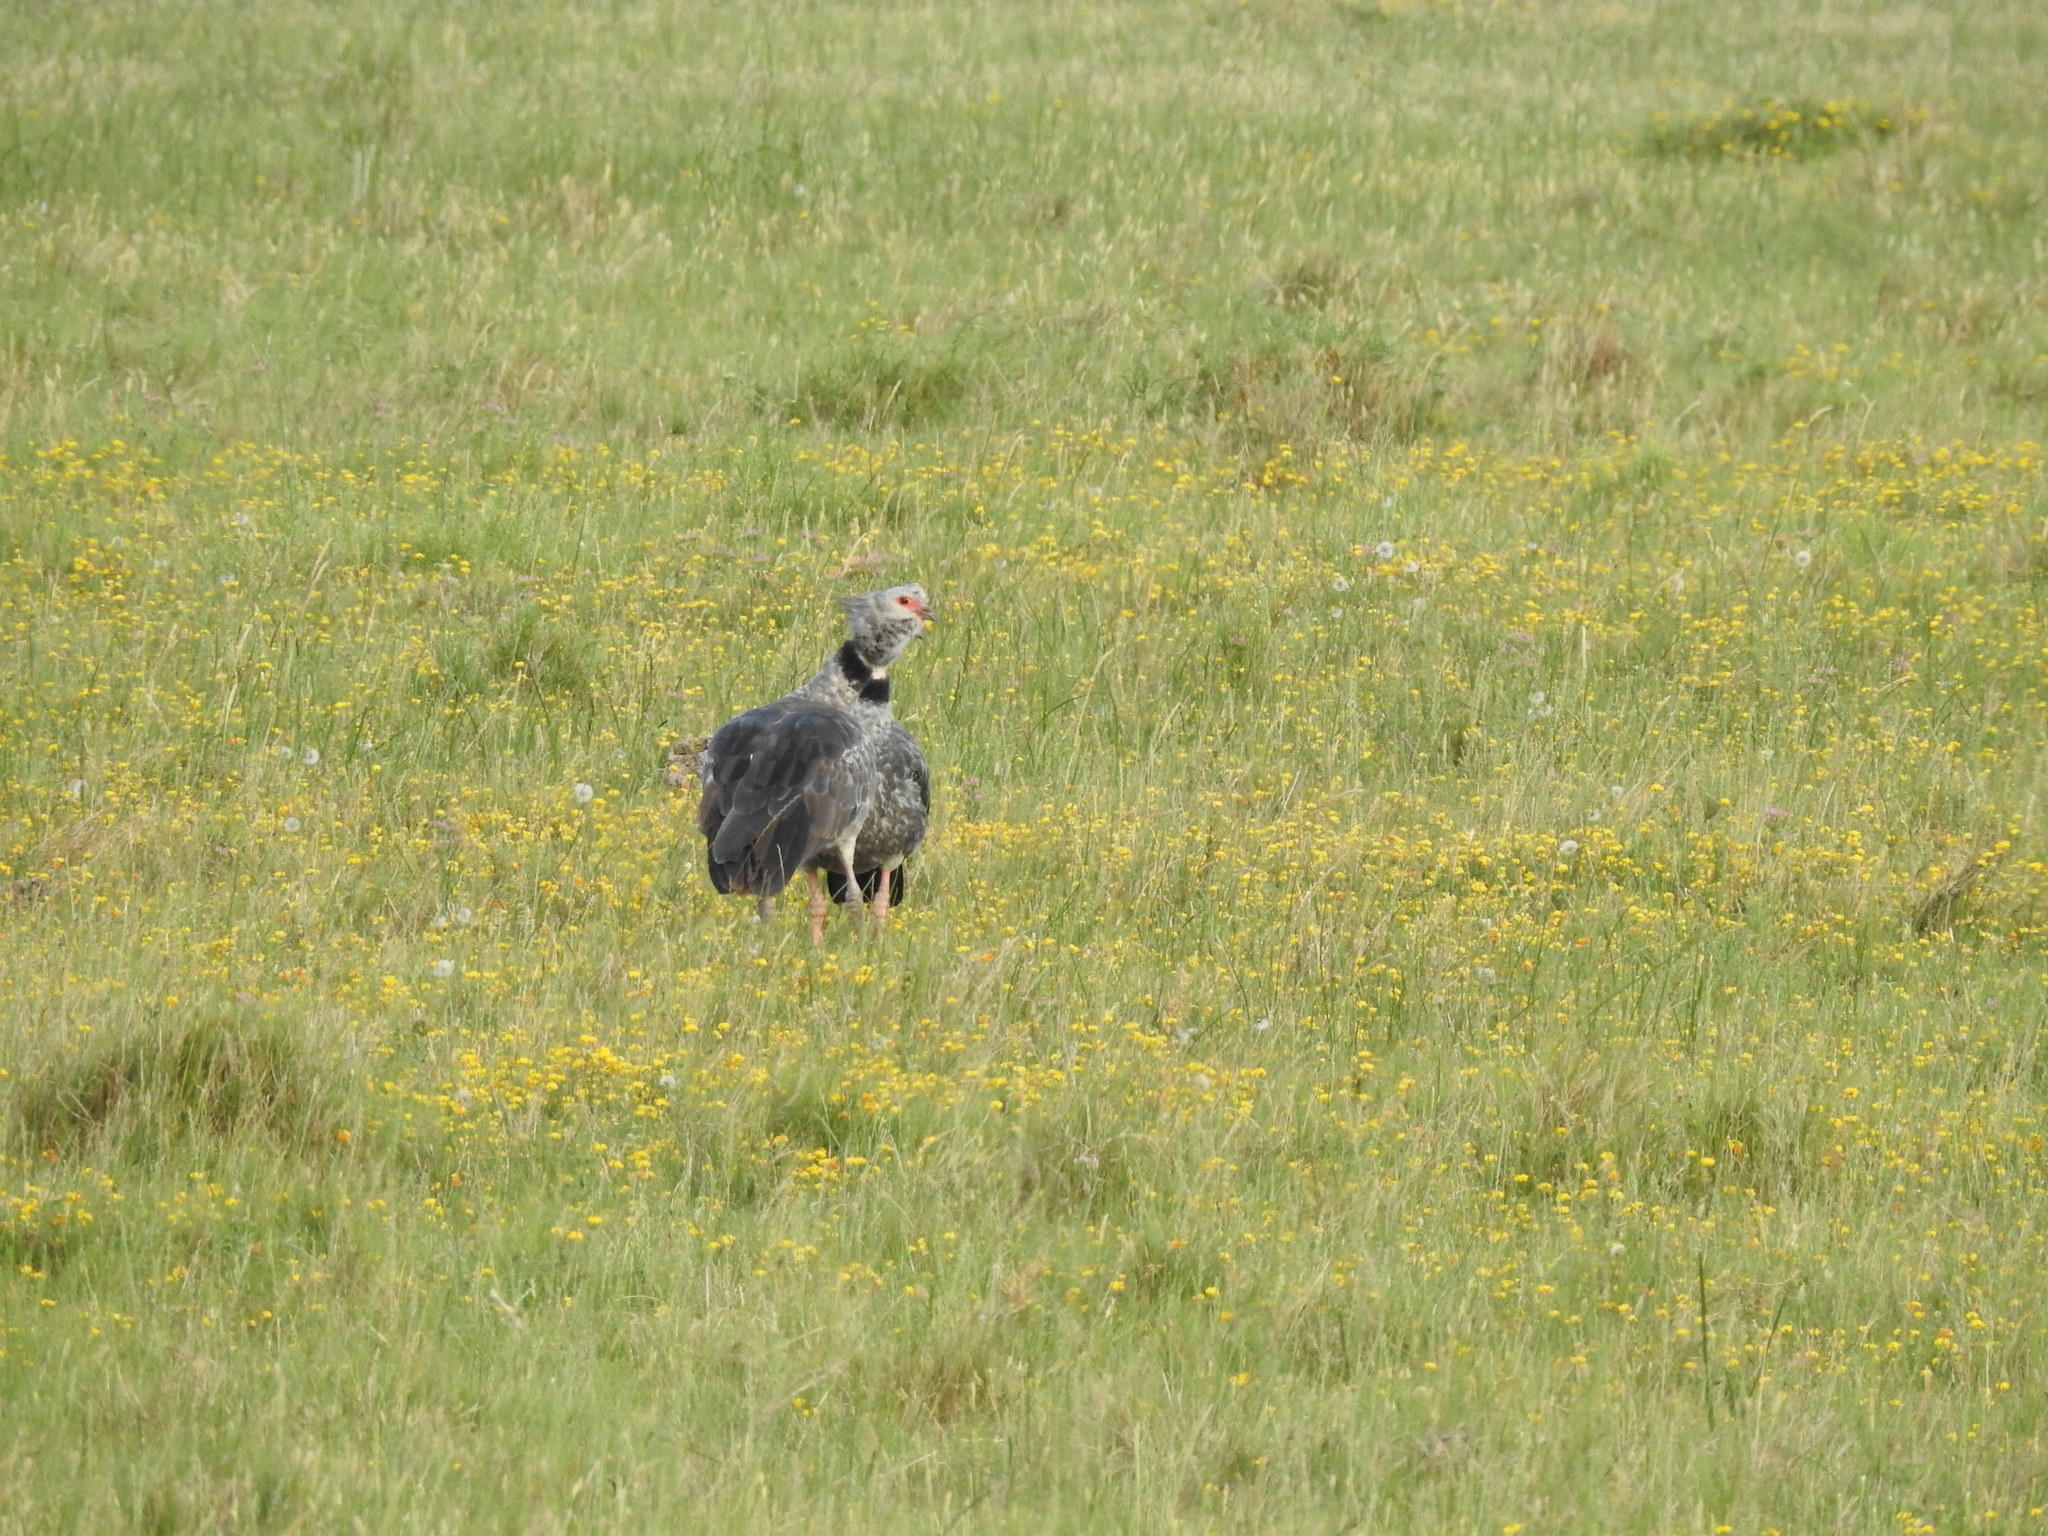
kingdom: Animalia
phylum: Chordata
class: Aves
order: Anseriformes
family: Anhimidae
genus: Chauna
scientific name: Chauna torquata
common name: Southern screamer
